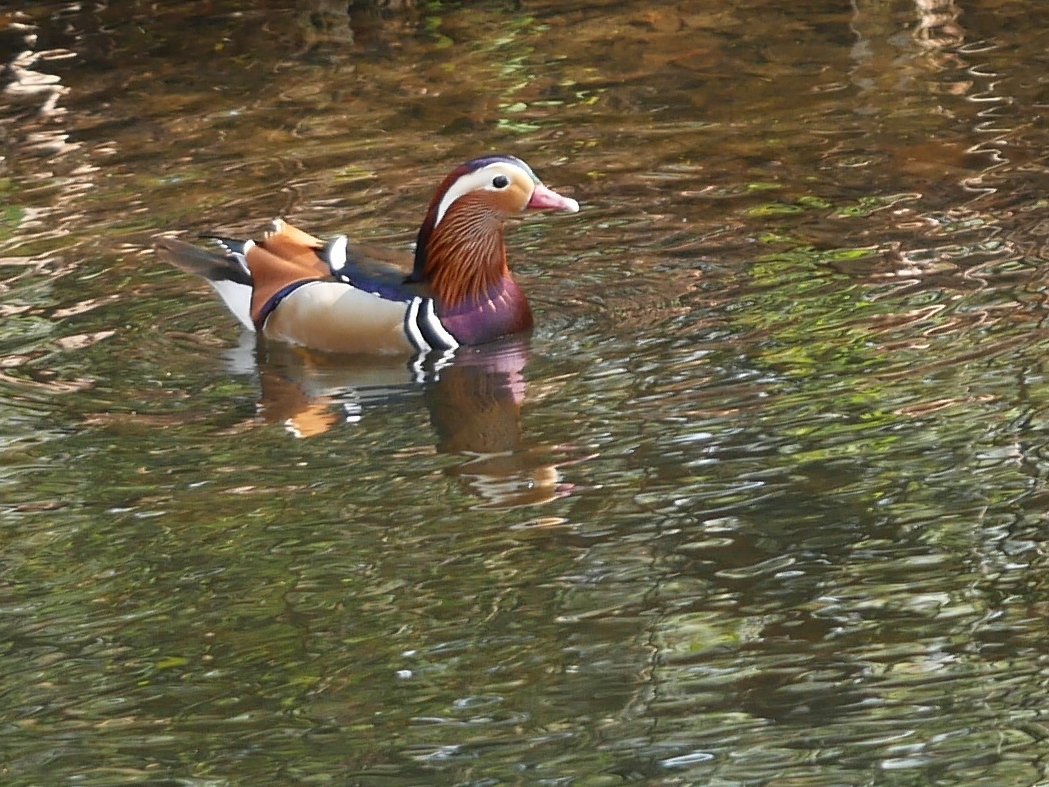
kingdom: Animalia
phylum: Chordata
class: Aves
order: Anseriformes
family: Anatidae
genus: Aix
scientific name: Aix galericulata
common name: Mandarin duck
